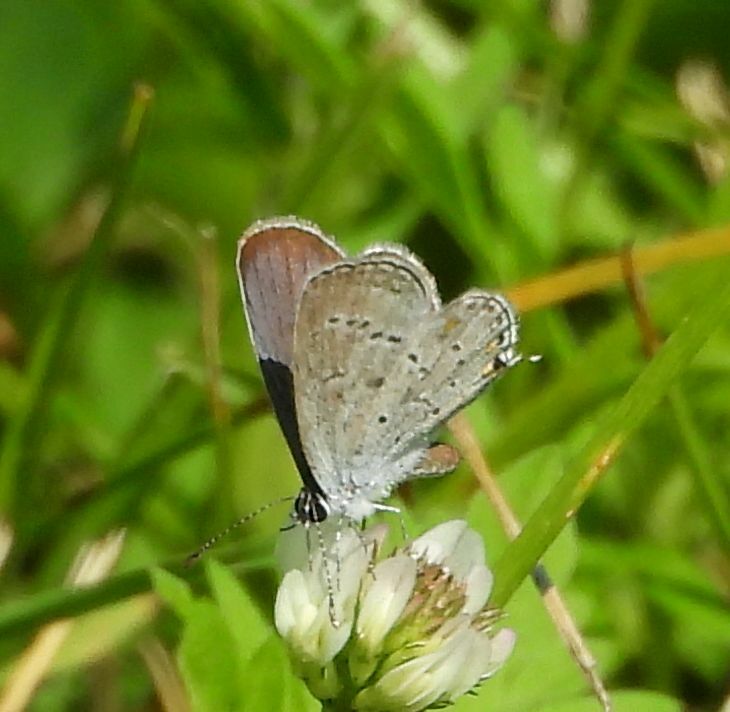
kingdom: Animalia
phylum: Arthropoda
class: Insecta
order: Lepidoptera
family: Lycaenidae
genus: Elkalyce
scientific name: Elkalyce comyntas
